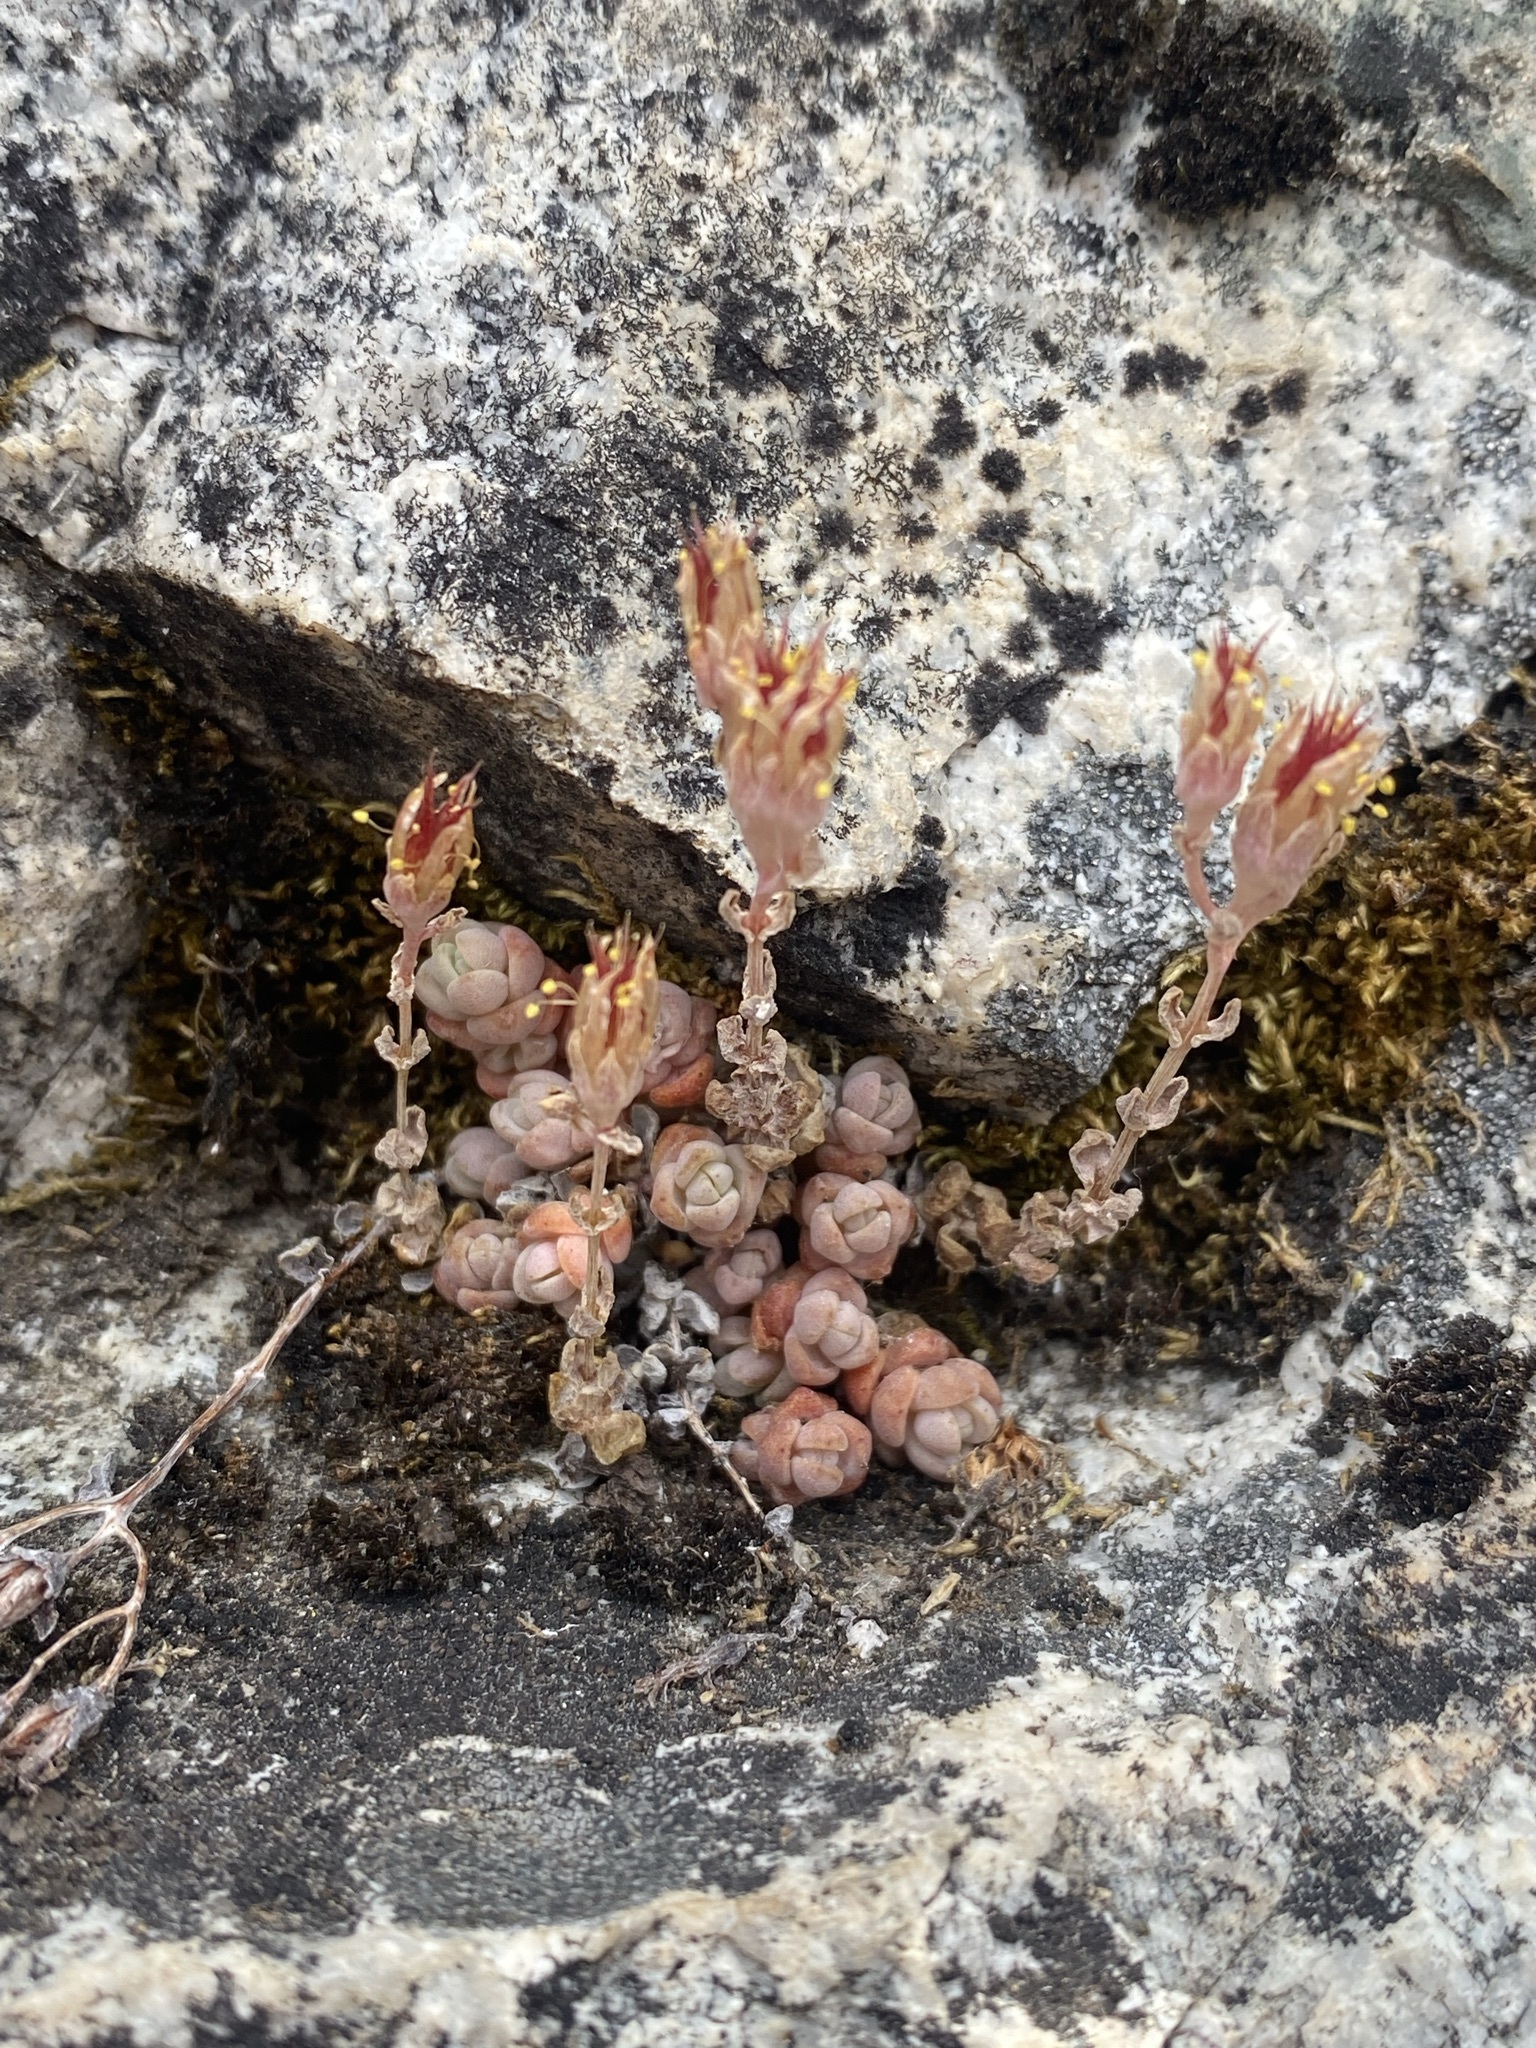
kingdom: Plantae
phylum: Tracheophyta
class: Magnoliopsida
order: Saxifragales
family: Crassulaceae
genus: Sedum
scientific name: Sedum debile
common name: Weak-stem stonecrop
